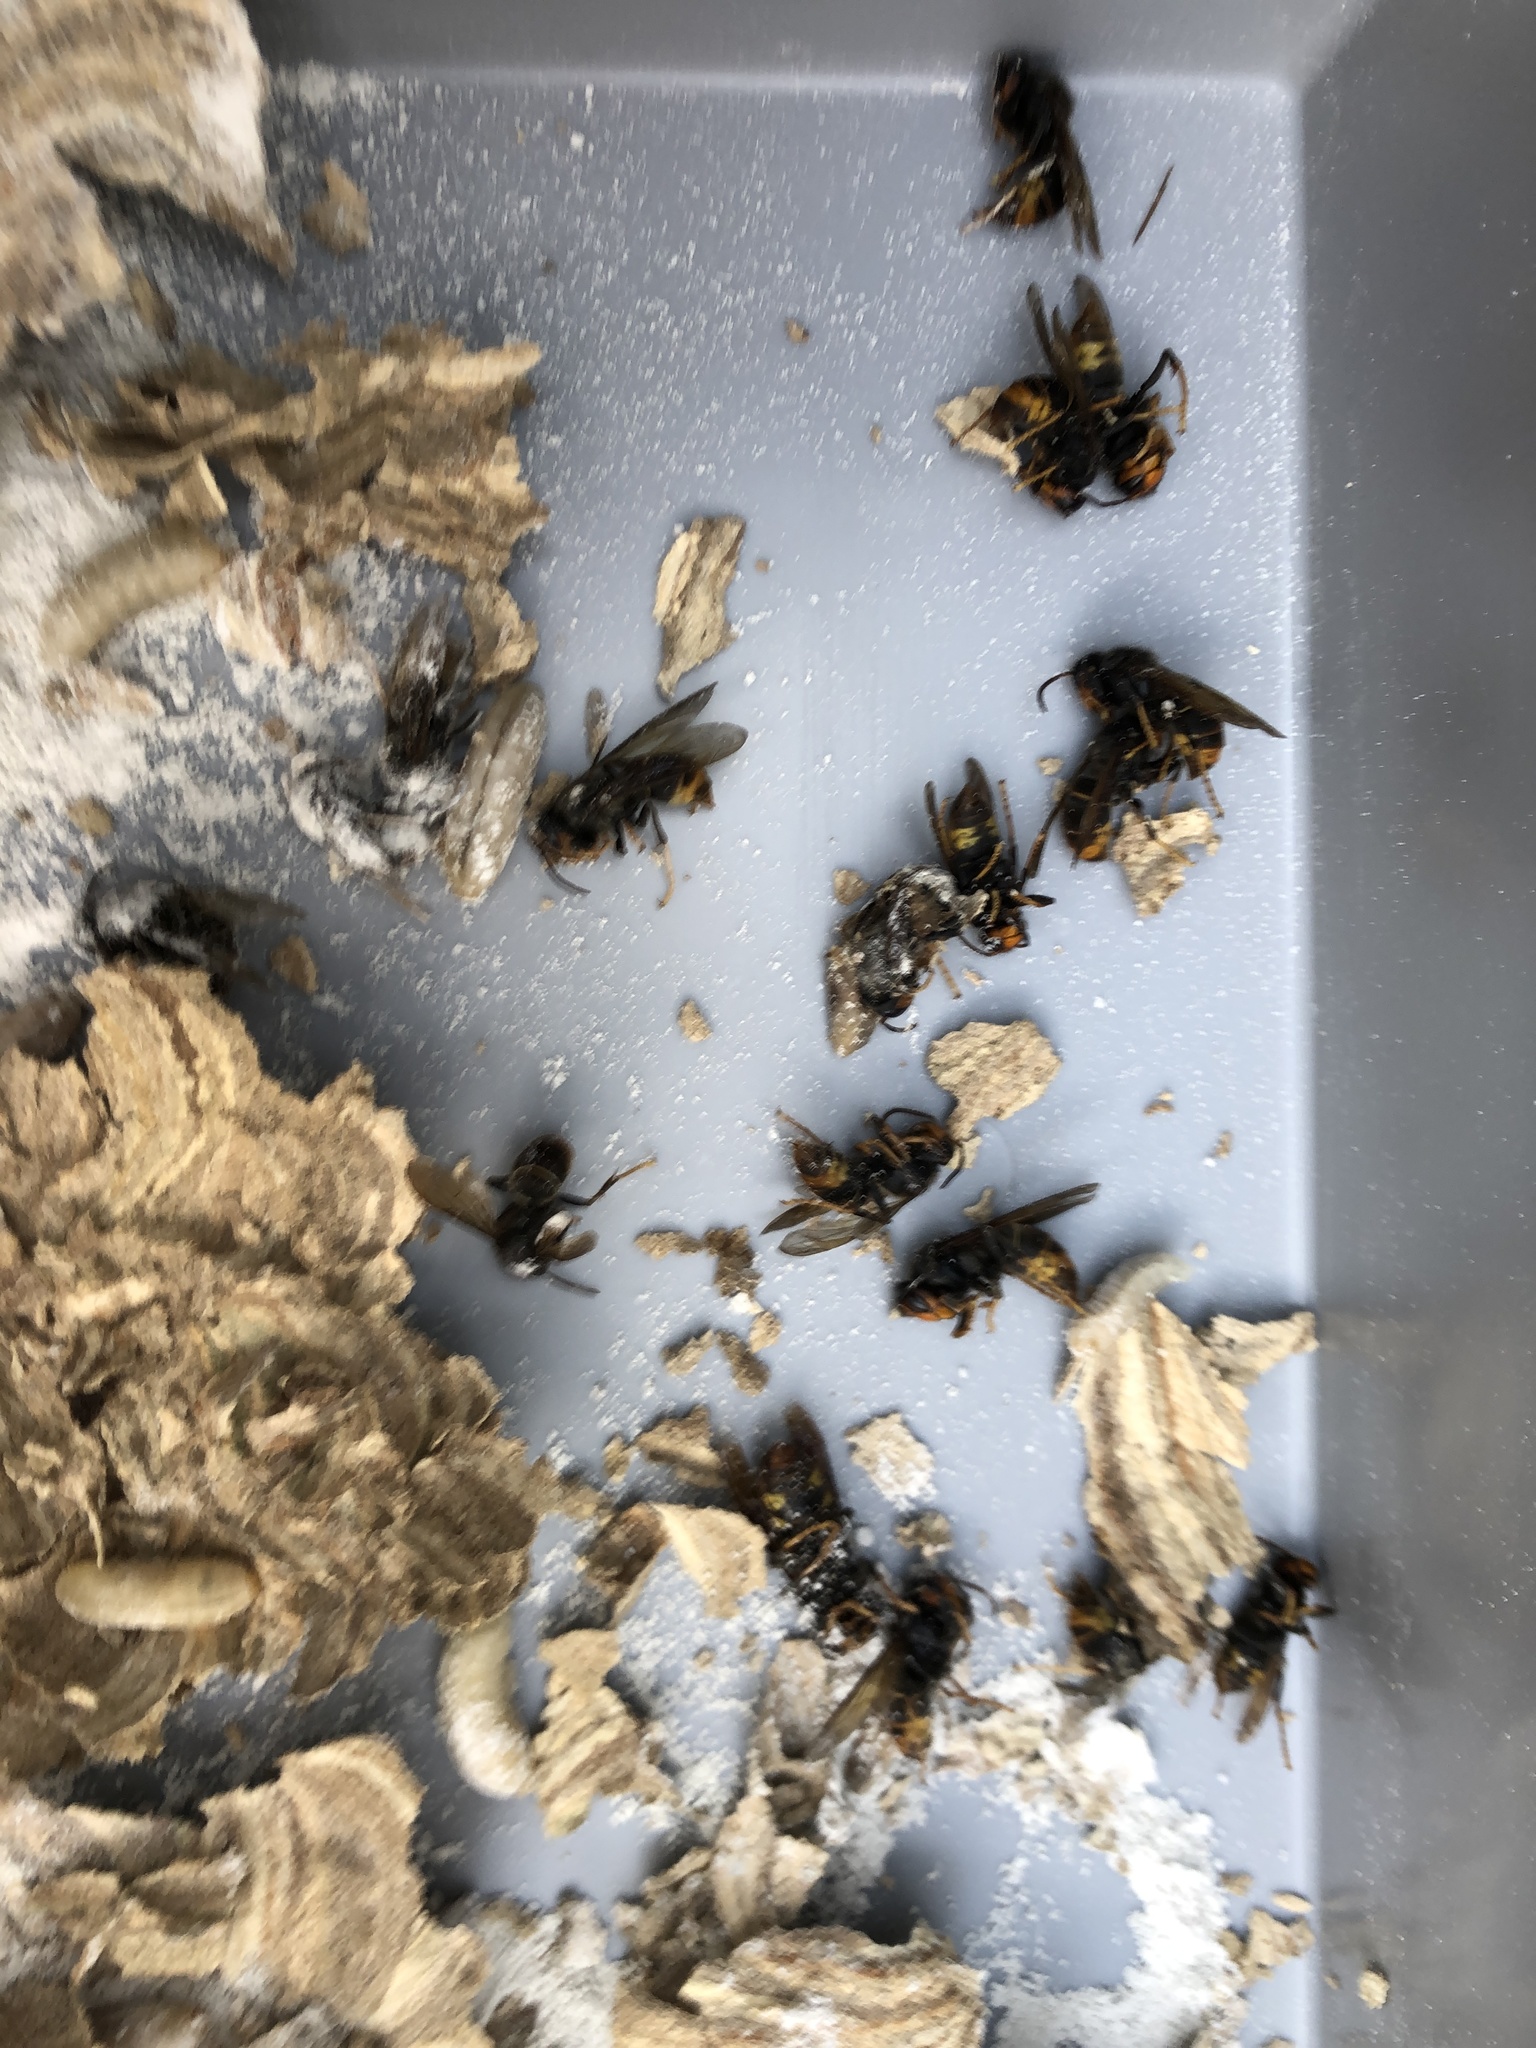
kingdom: Animalia
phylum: Arthropoda
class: Insecta
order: Hymenoptera
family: Vespidae
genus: Vespa
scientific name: Vespa velutina
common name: Asian hornet
